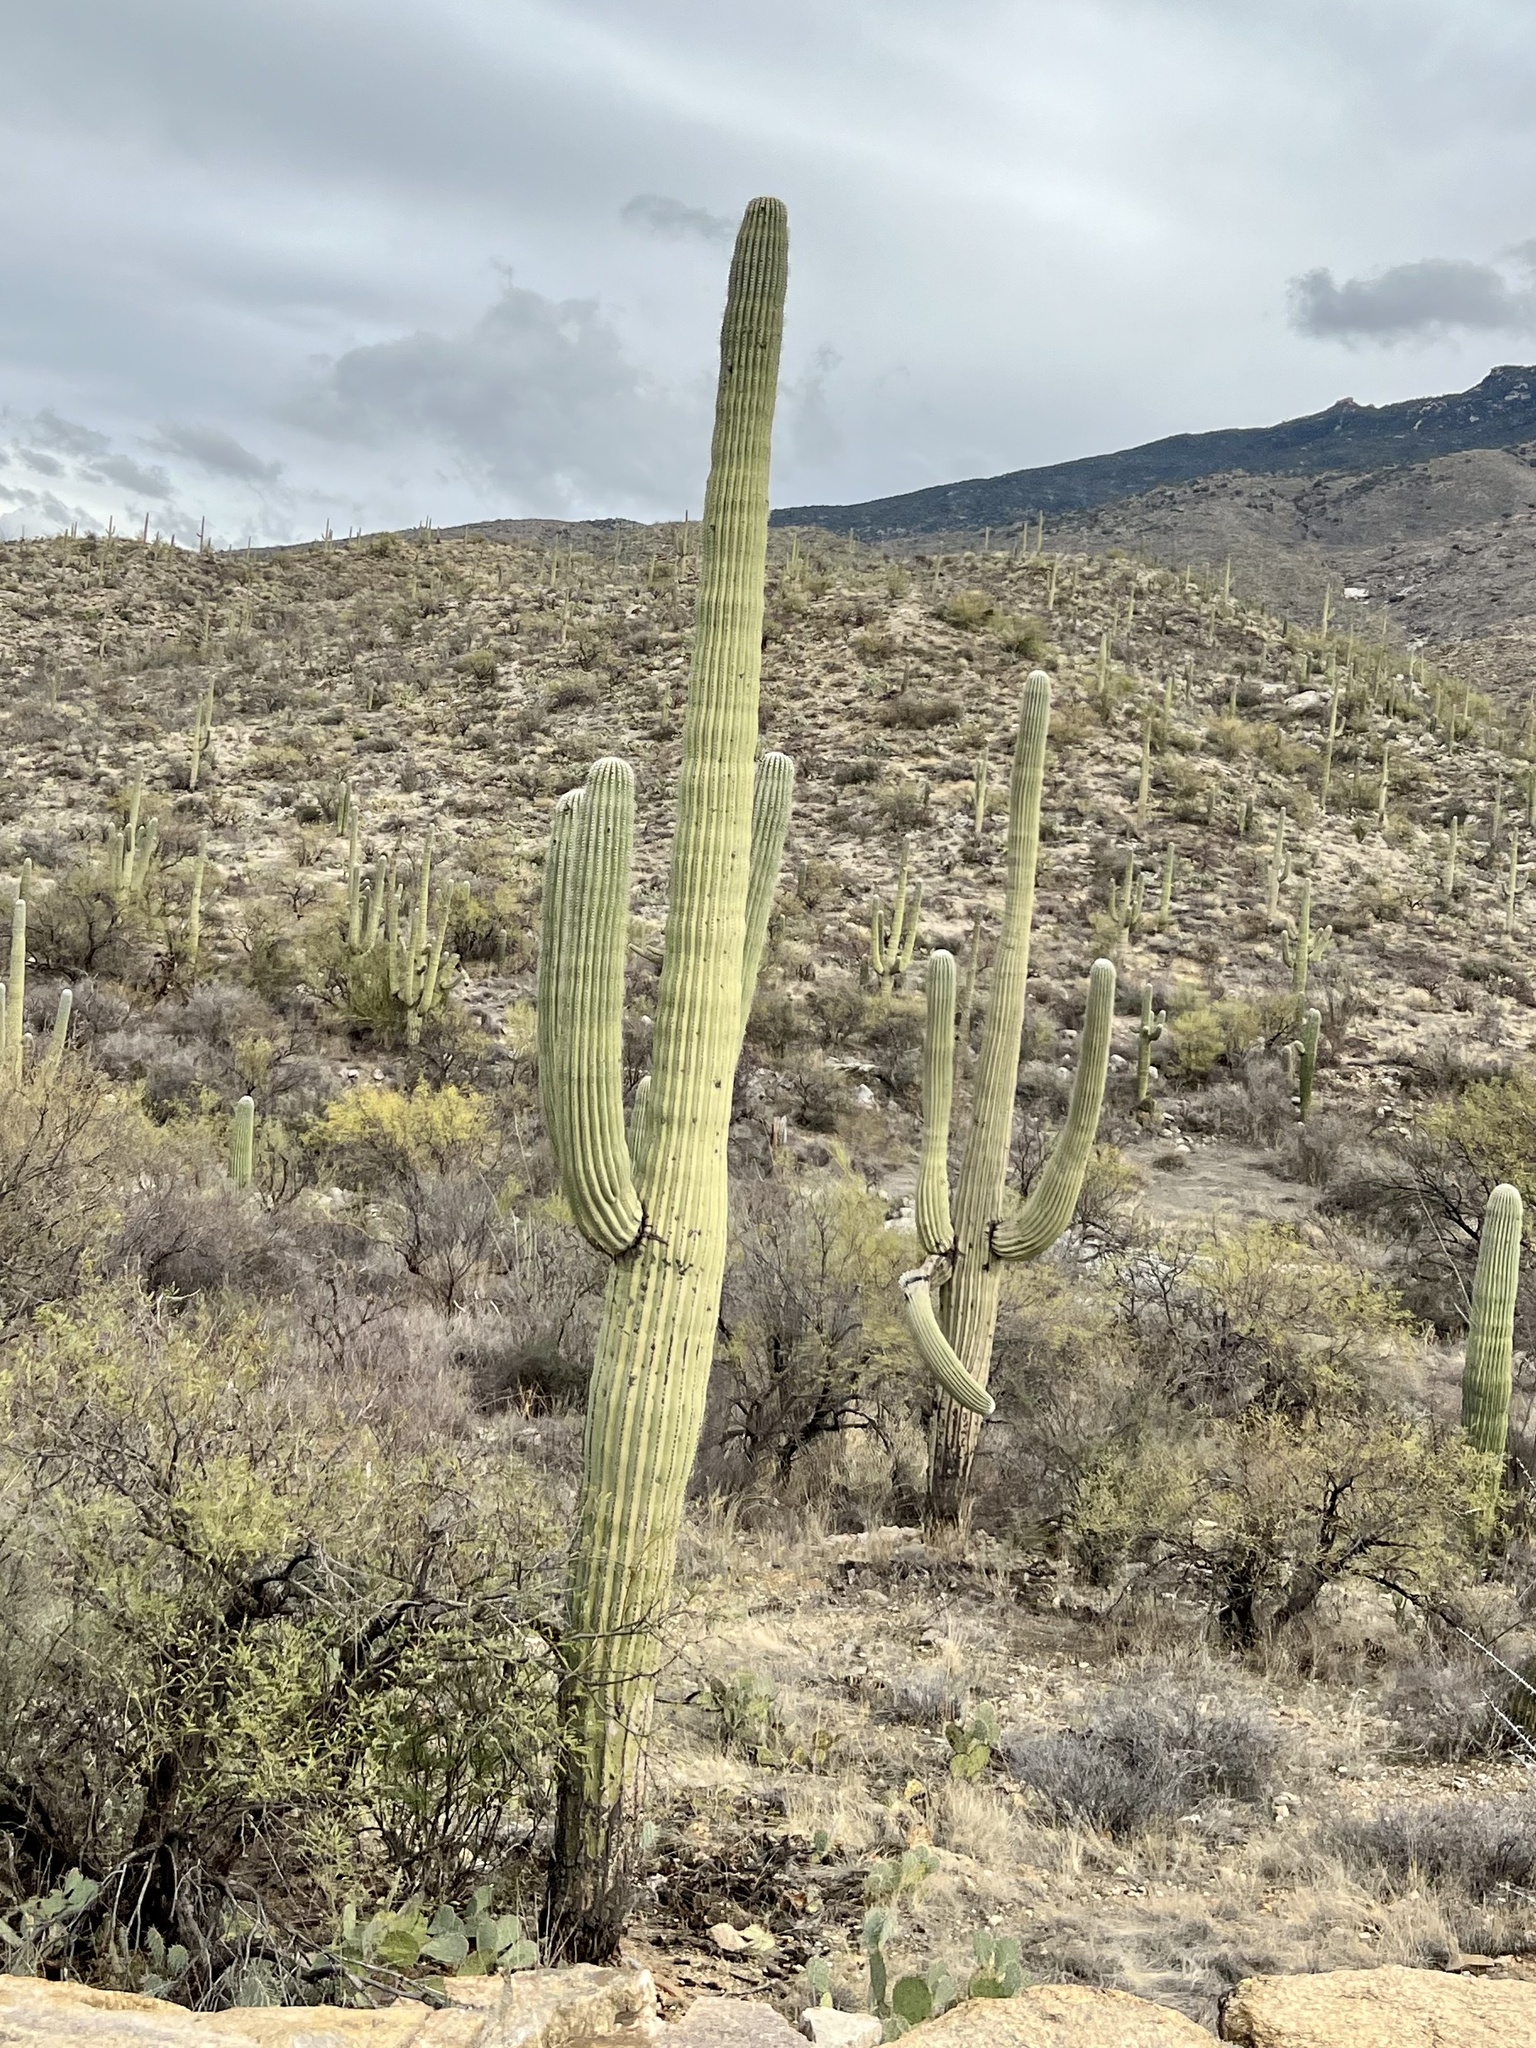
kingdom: Plantae
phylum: Tracheophyta
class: Magnoliopsida
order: Caryophyllales
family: Cactaceae
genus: Carnegiea
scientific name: Carnegiea gigantea
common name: Saguaro
